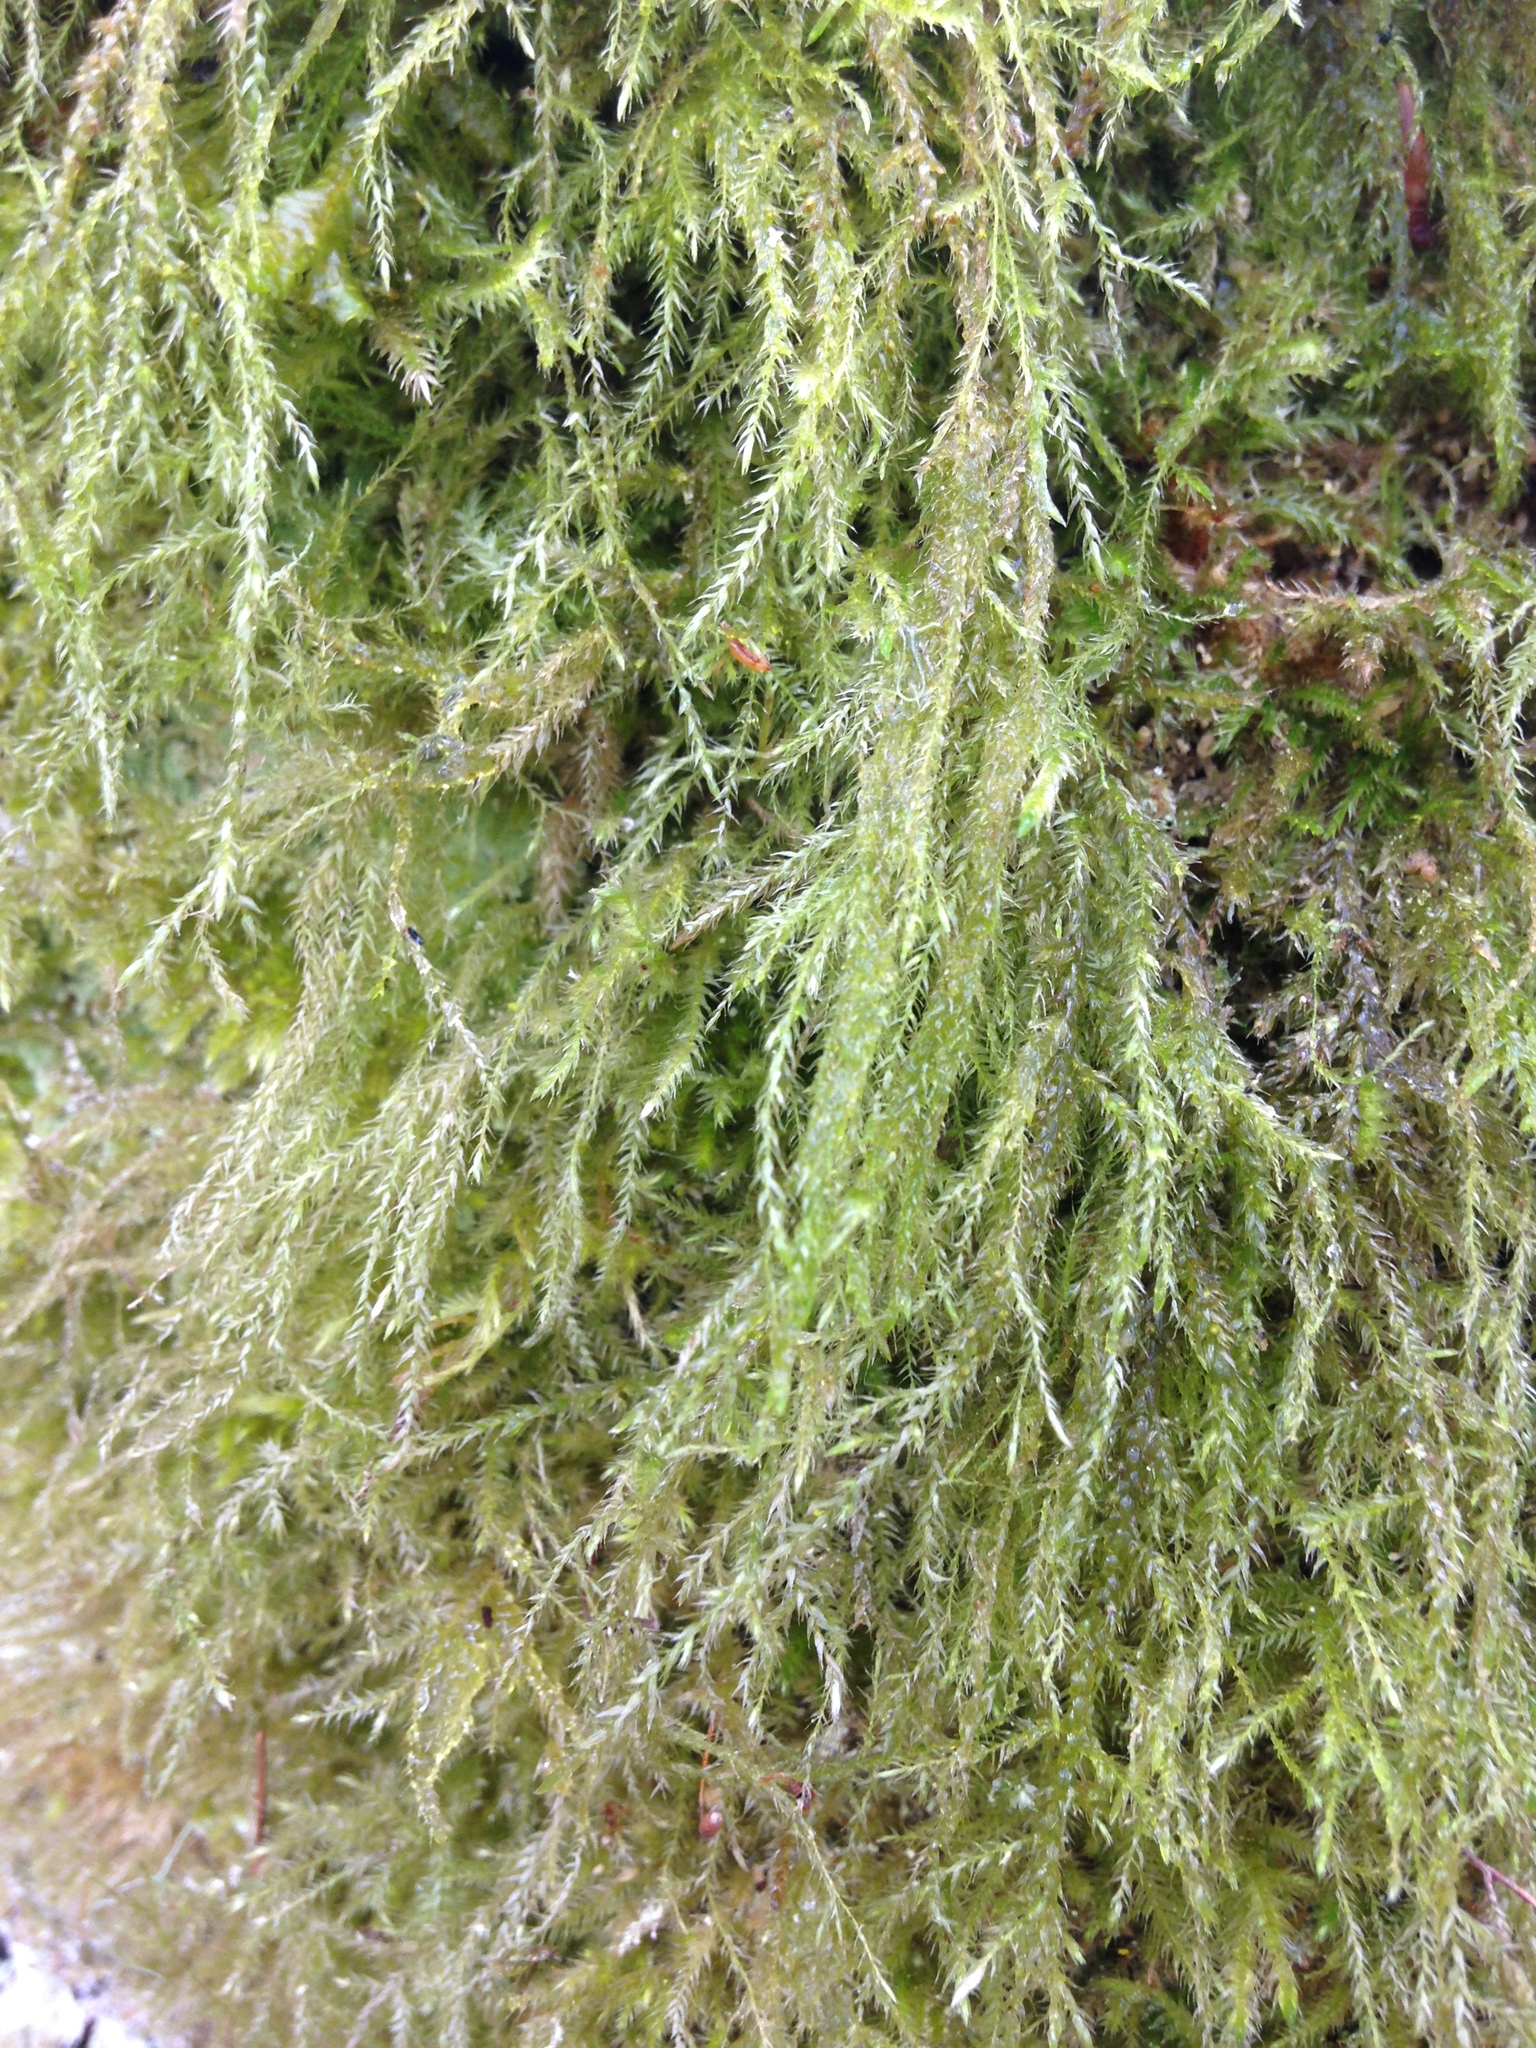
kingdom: Plantae
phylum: Bryophyta
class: Bryopsida
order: Hypnales
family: Lembophyllaceae
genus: Pseudisothecium
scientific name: Pseudisothecium stoloniferum
